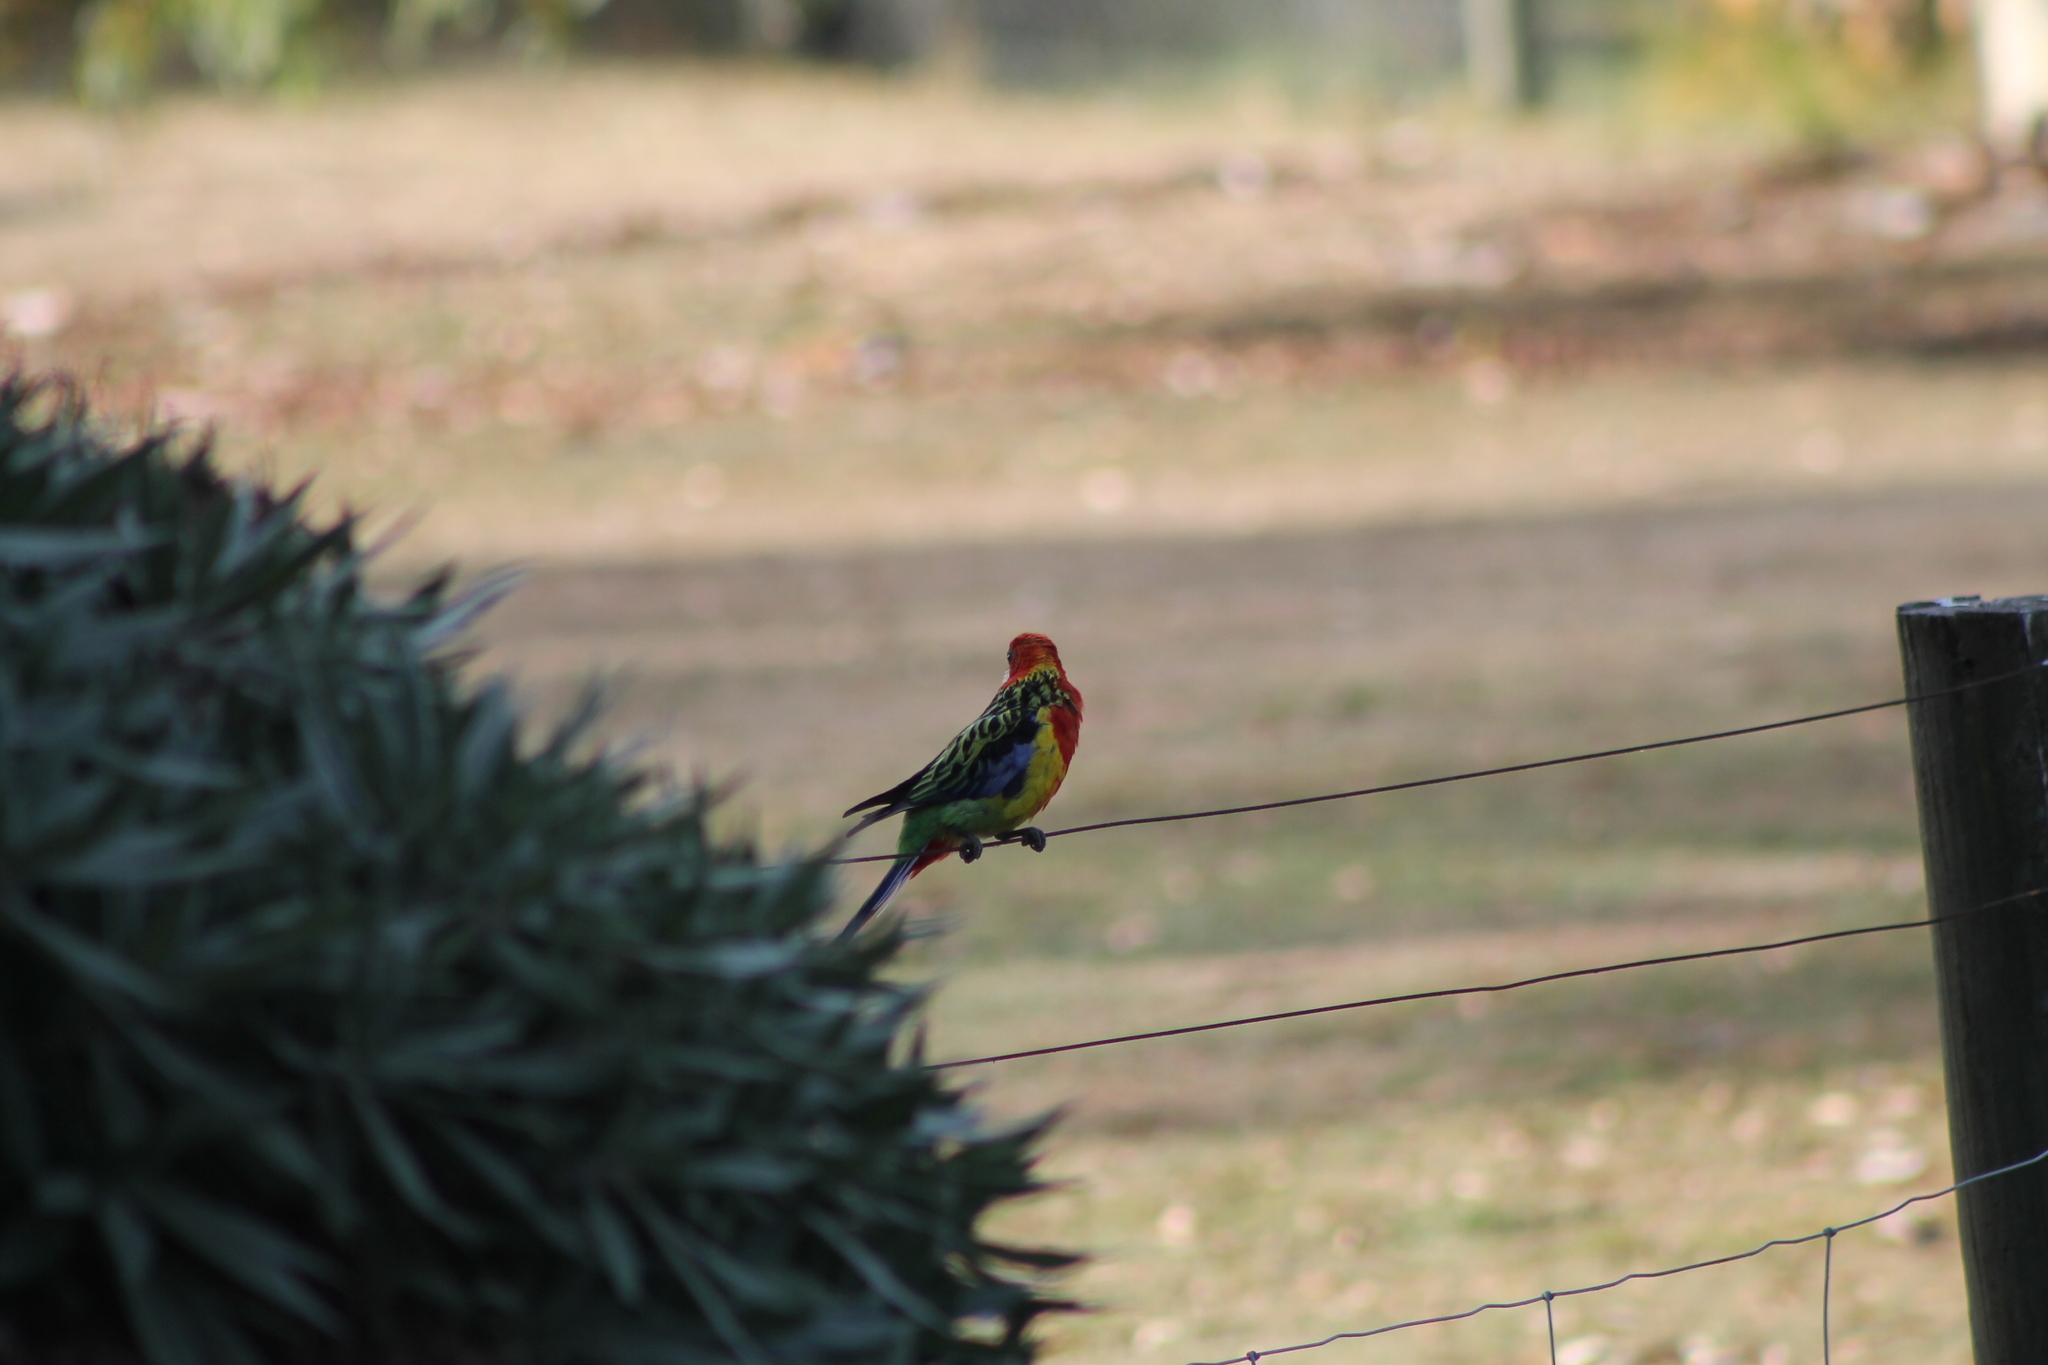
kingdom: Animalia
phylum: Chordata
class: Aves
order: Psittaciformes
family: Psittacidae
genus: Platycercus
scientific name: Platycercus eximius
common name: Eastern rosella
